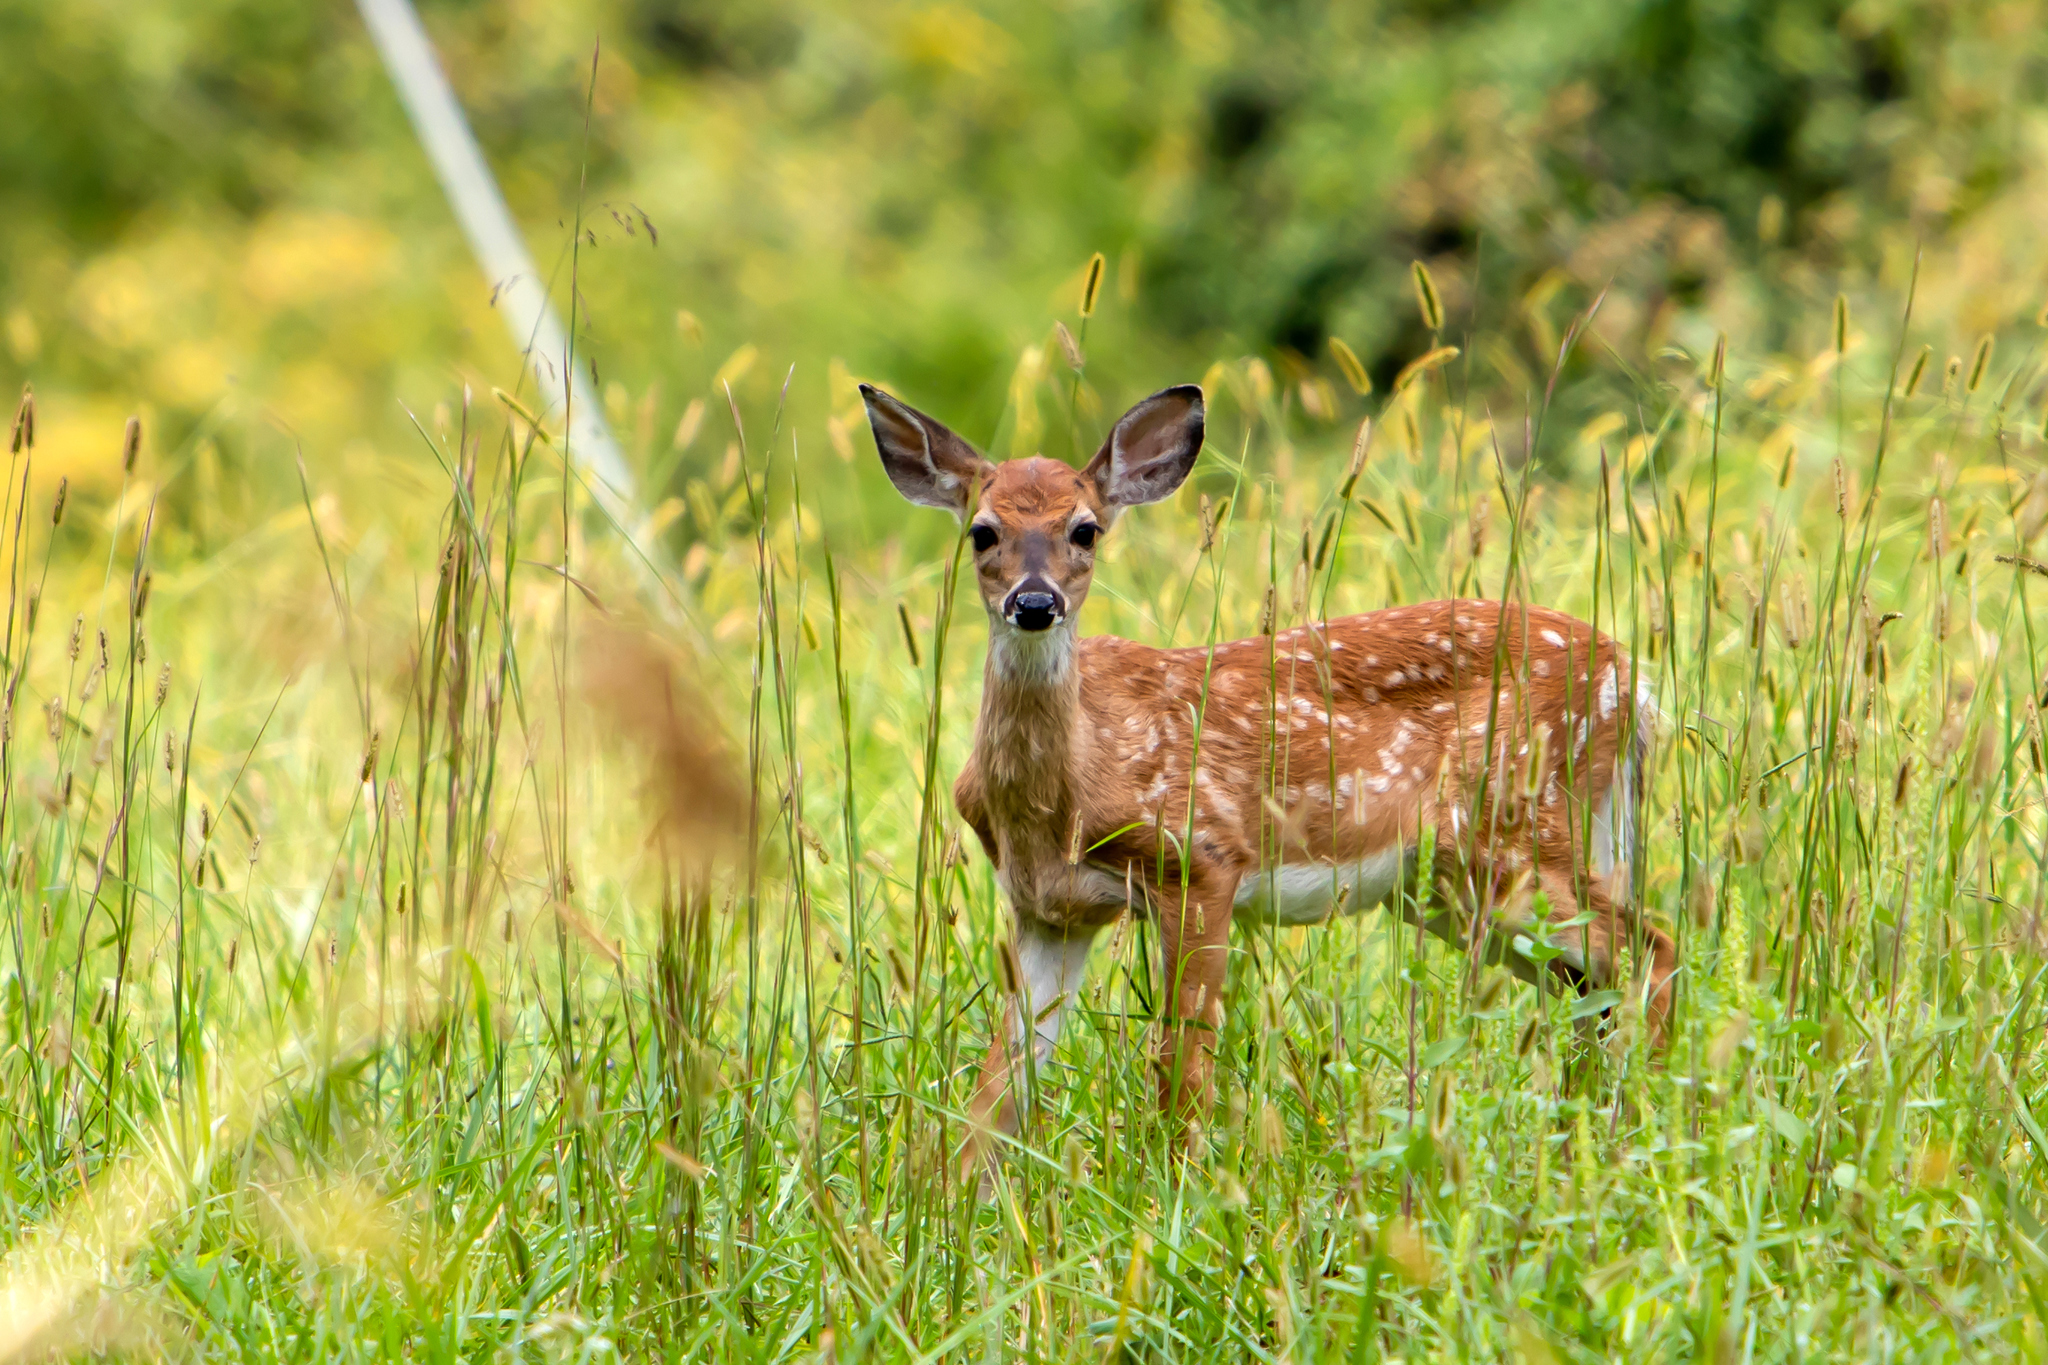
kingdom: Animalia
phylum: Chordata
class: Mammalia
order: Artiodactyla
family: Cervidae
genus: Odocoileus
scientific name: Odocoileus virginianus
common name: White-tailed deer
